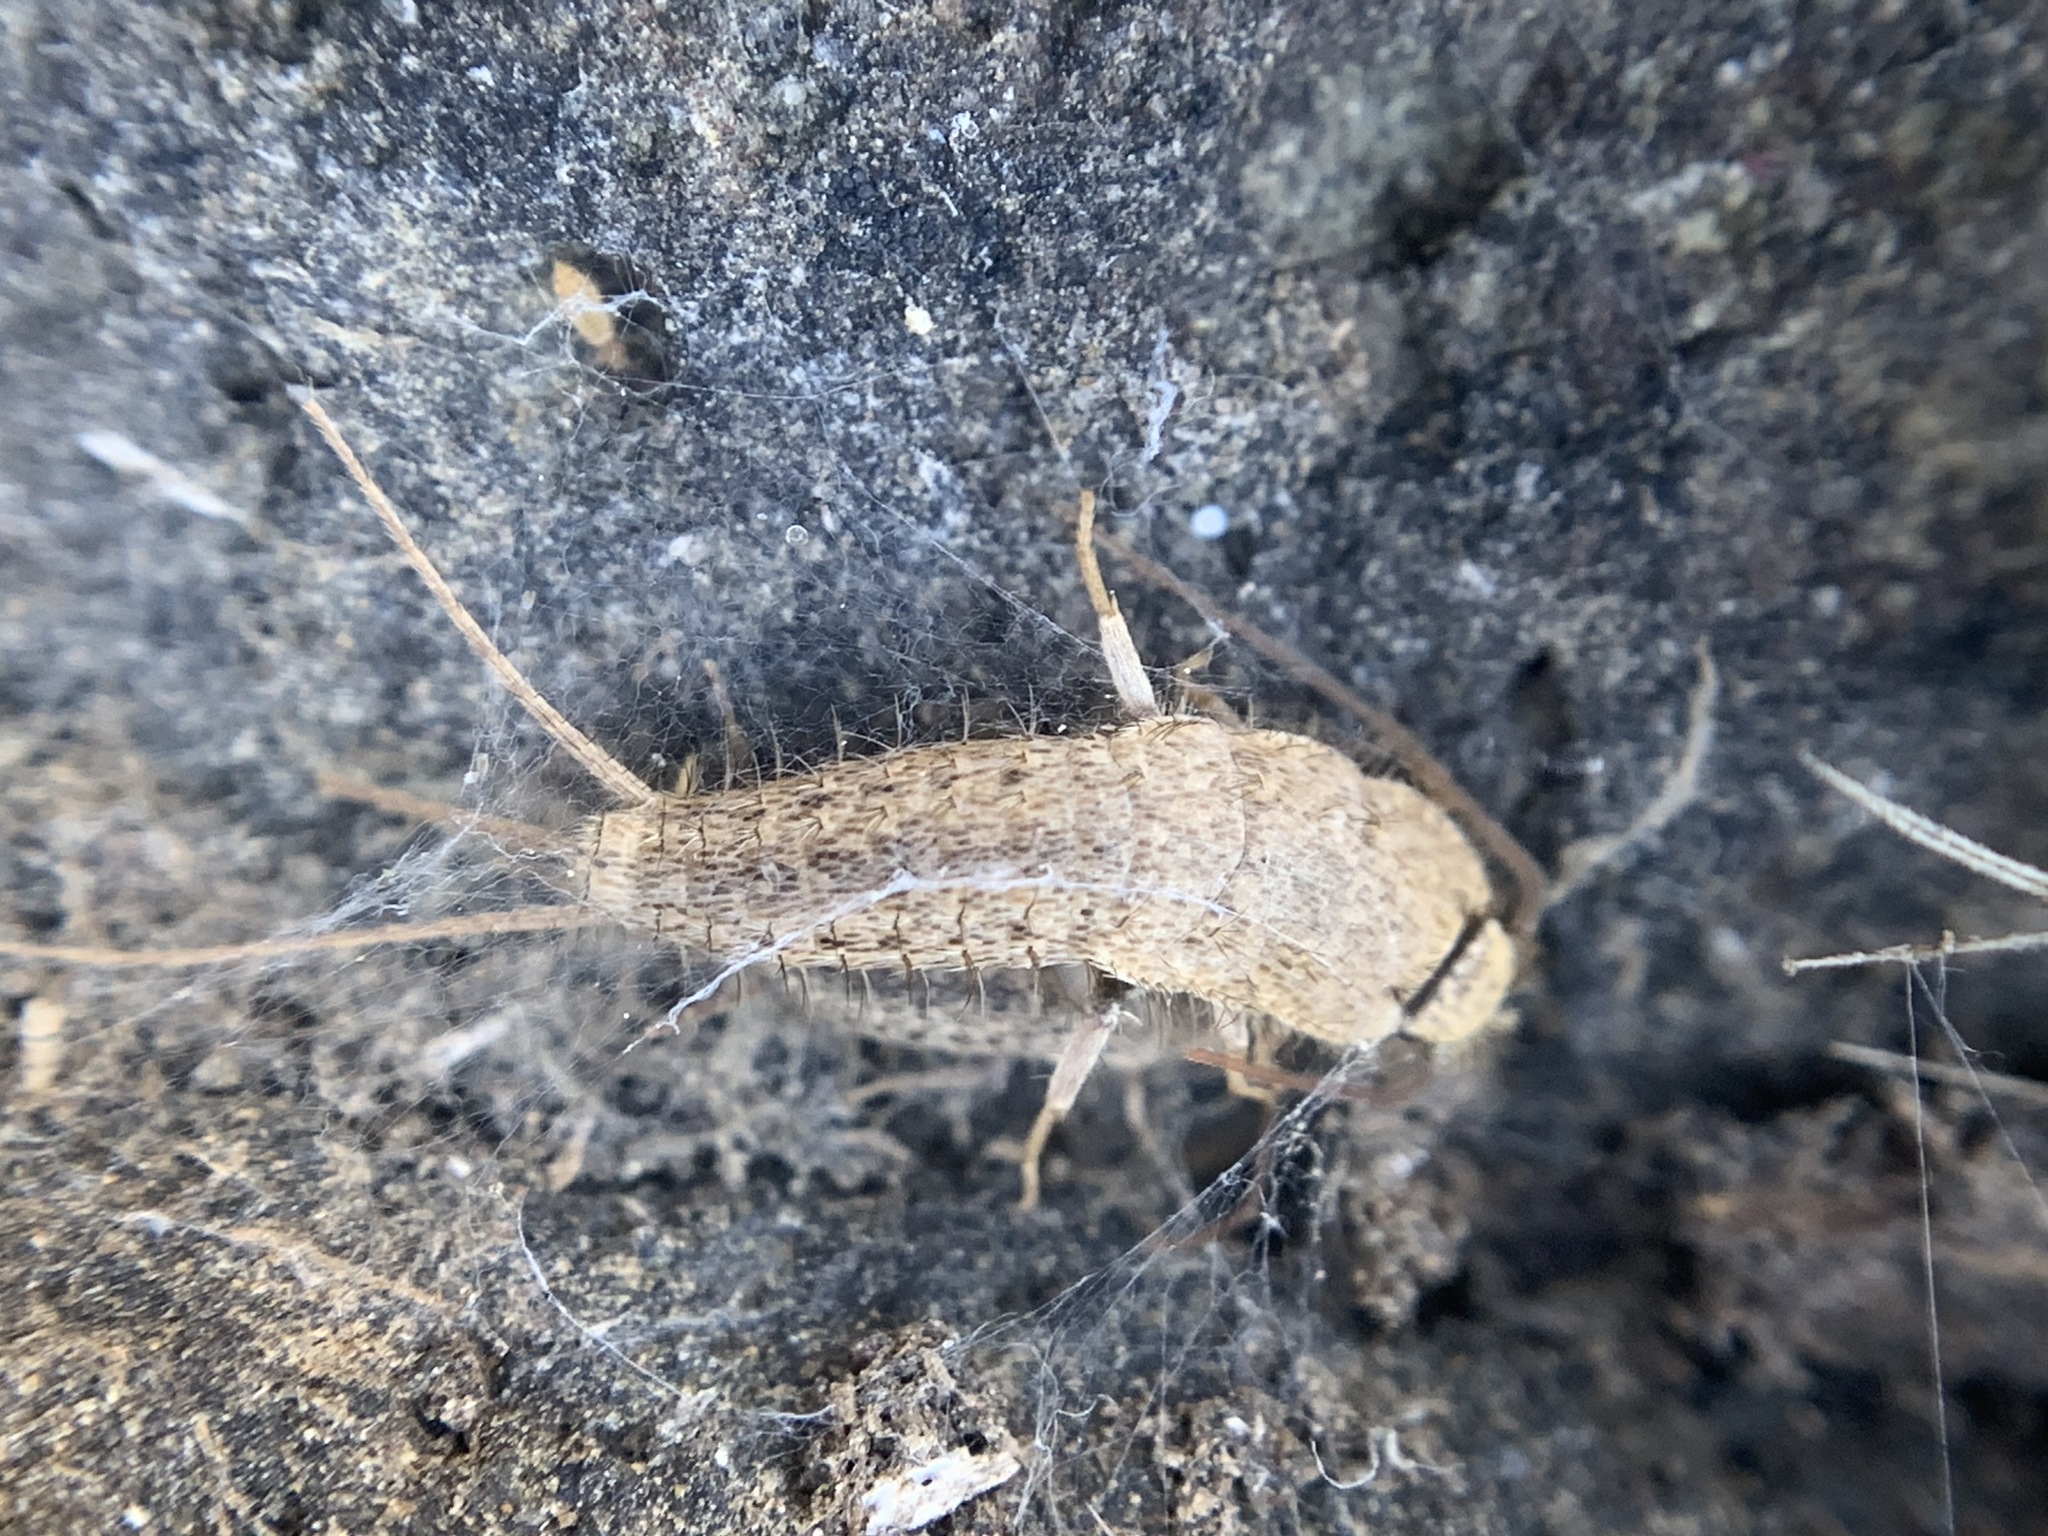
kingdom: Animalia
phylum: Arthropoda
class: Insecta
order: Zygentoma
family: Lepismatidae
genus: Ctenolepisma
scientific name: Ctenolepisma ciliata
